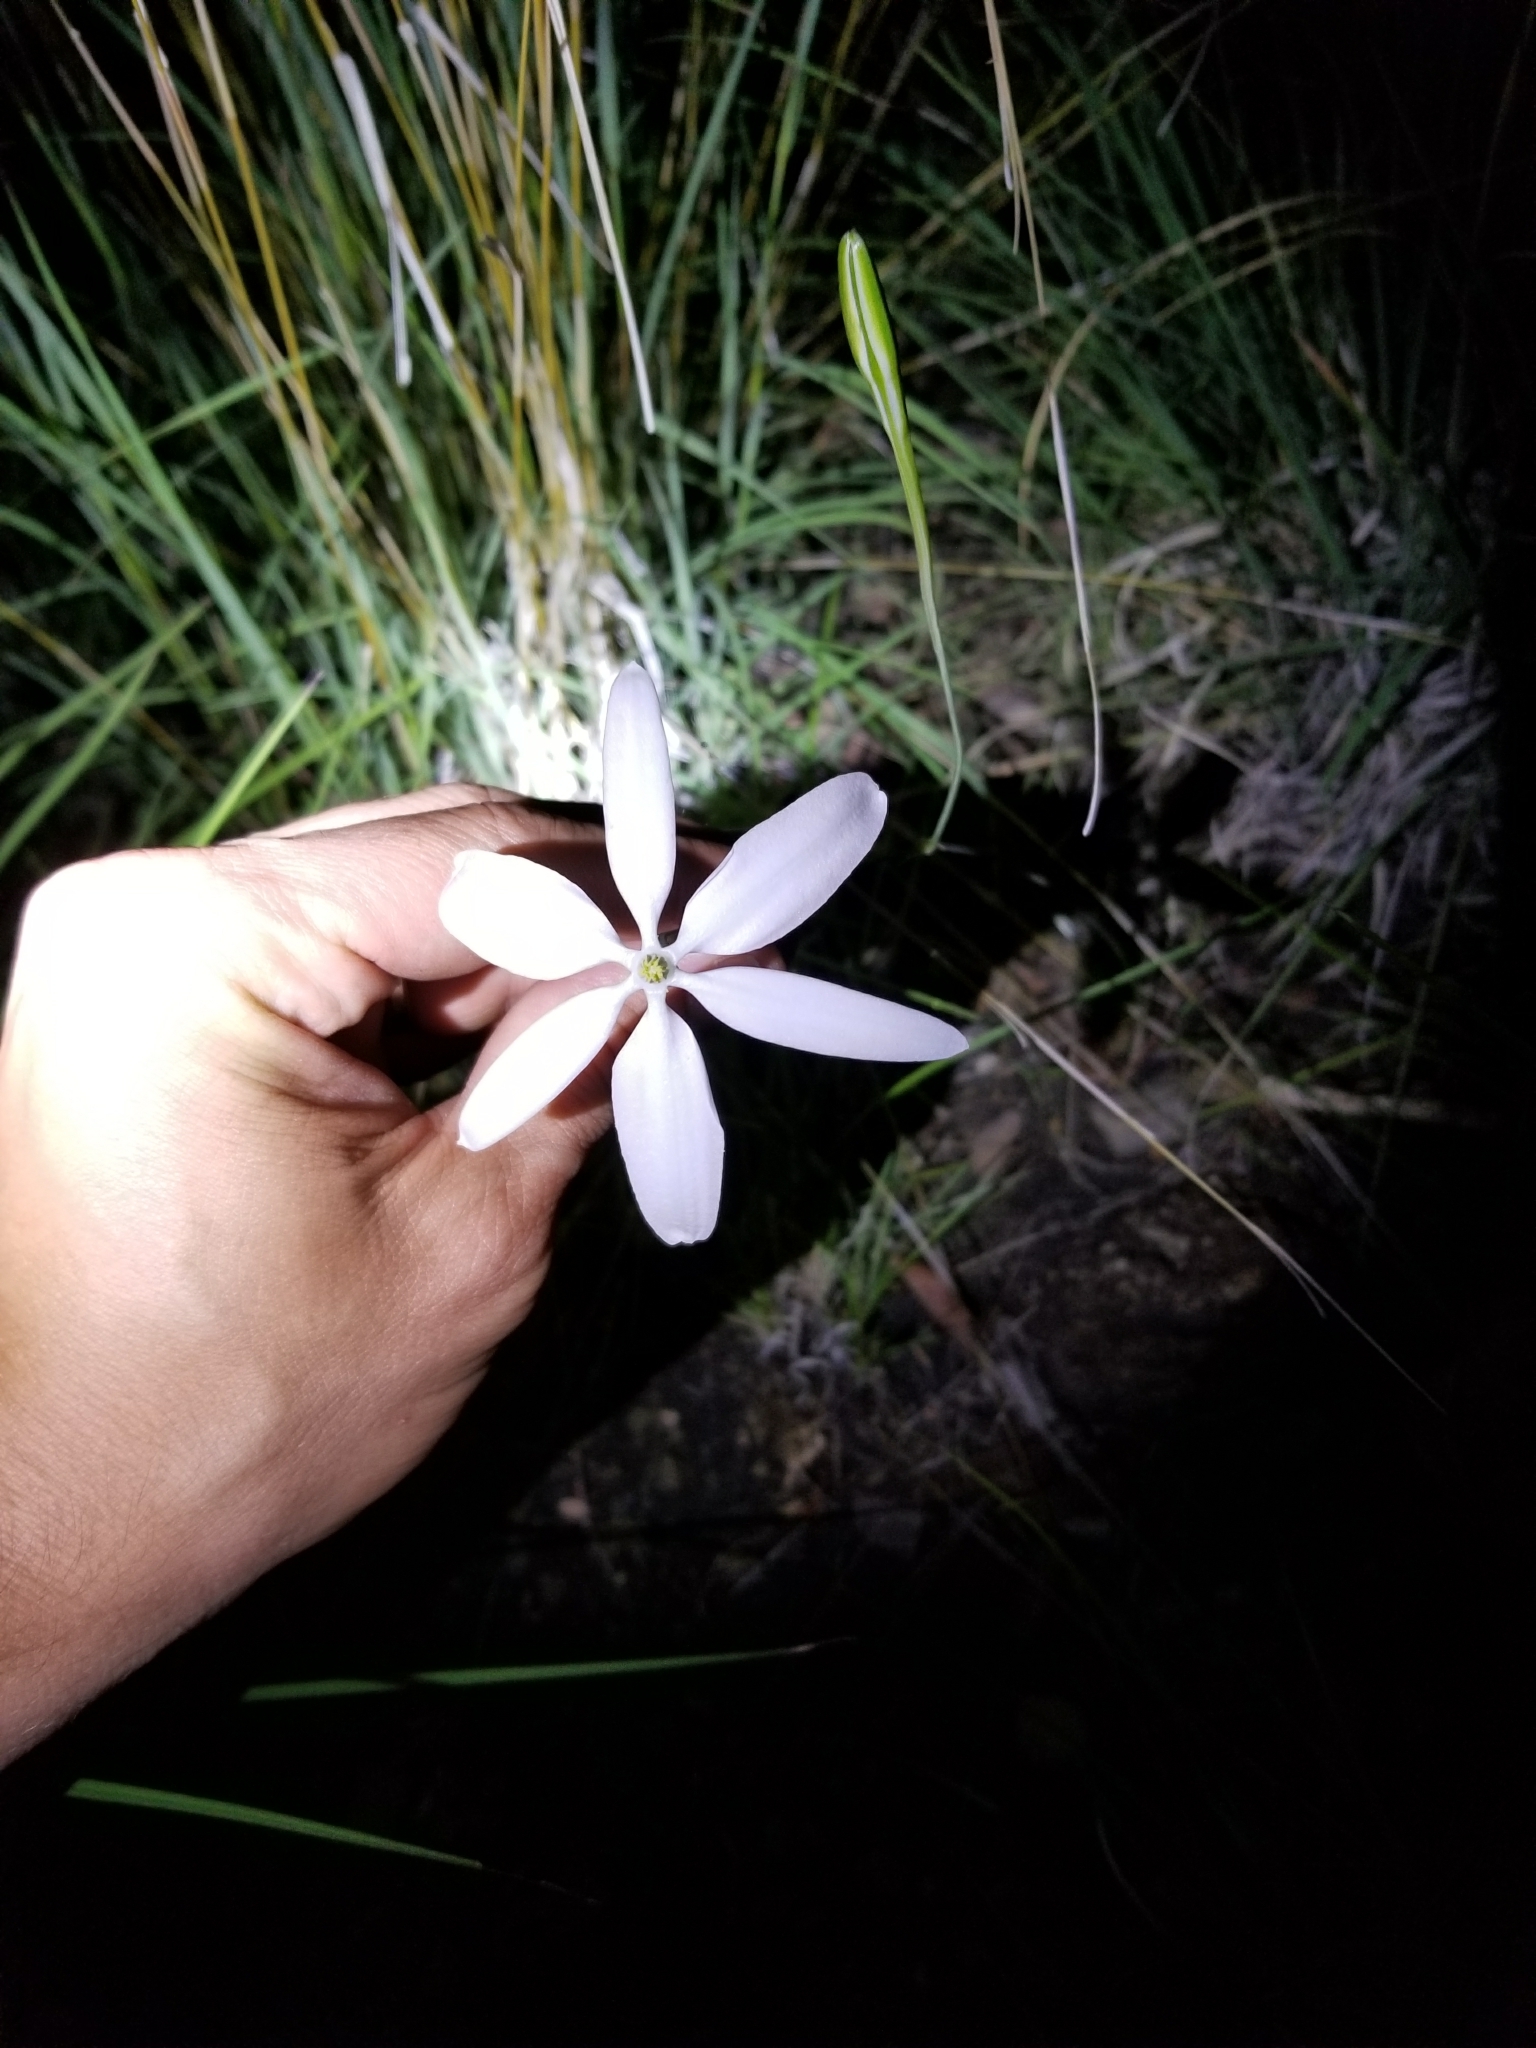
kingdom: Plantae
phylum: Tracheophyta
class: Liliopsida
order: Asparagales
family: Asparagaceae
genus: Milla
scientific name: Milla biflora
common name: Mexican-star
